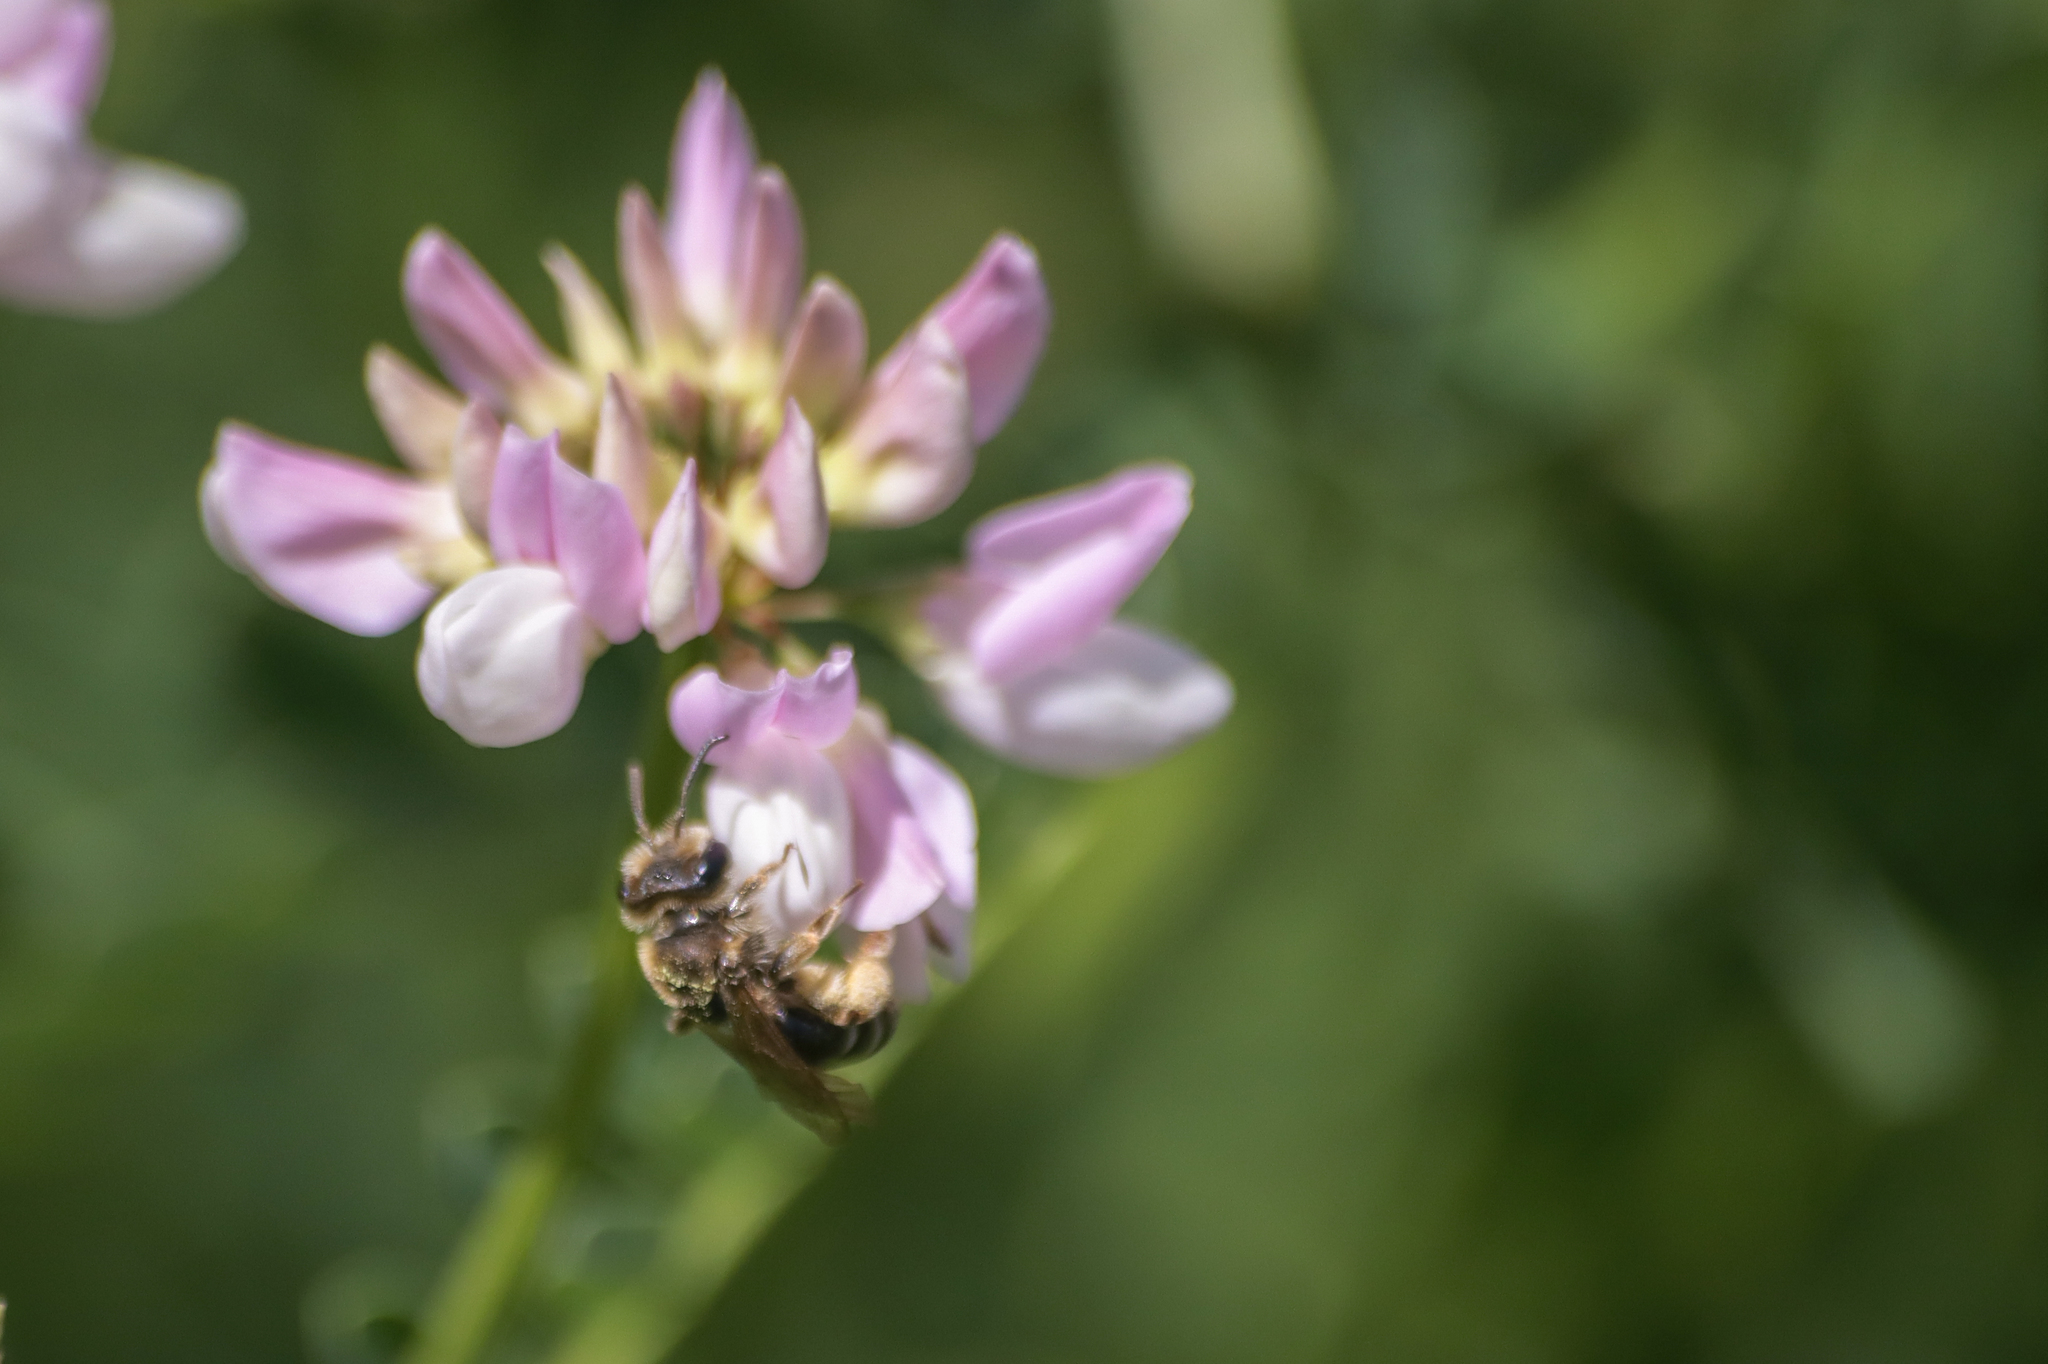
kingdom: Animalia
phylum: Arthropoda
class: Insecta
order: Hymenoptera
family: Andrenidae
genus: Andrena
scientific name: Andrena wilkella
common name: Wilke's mining bee
